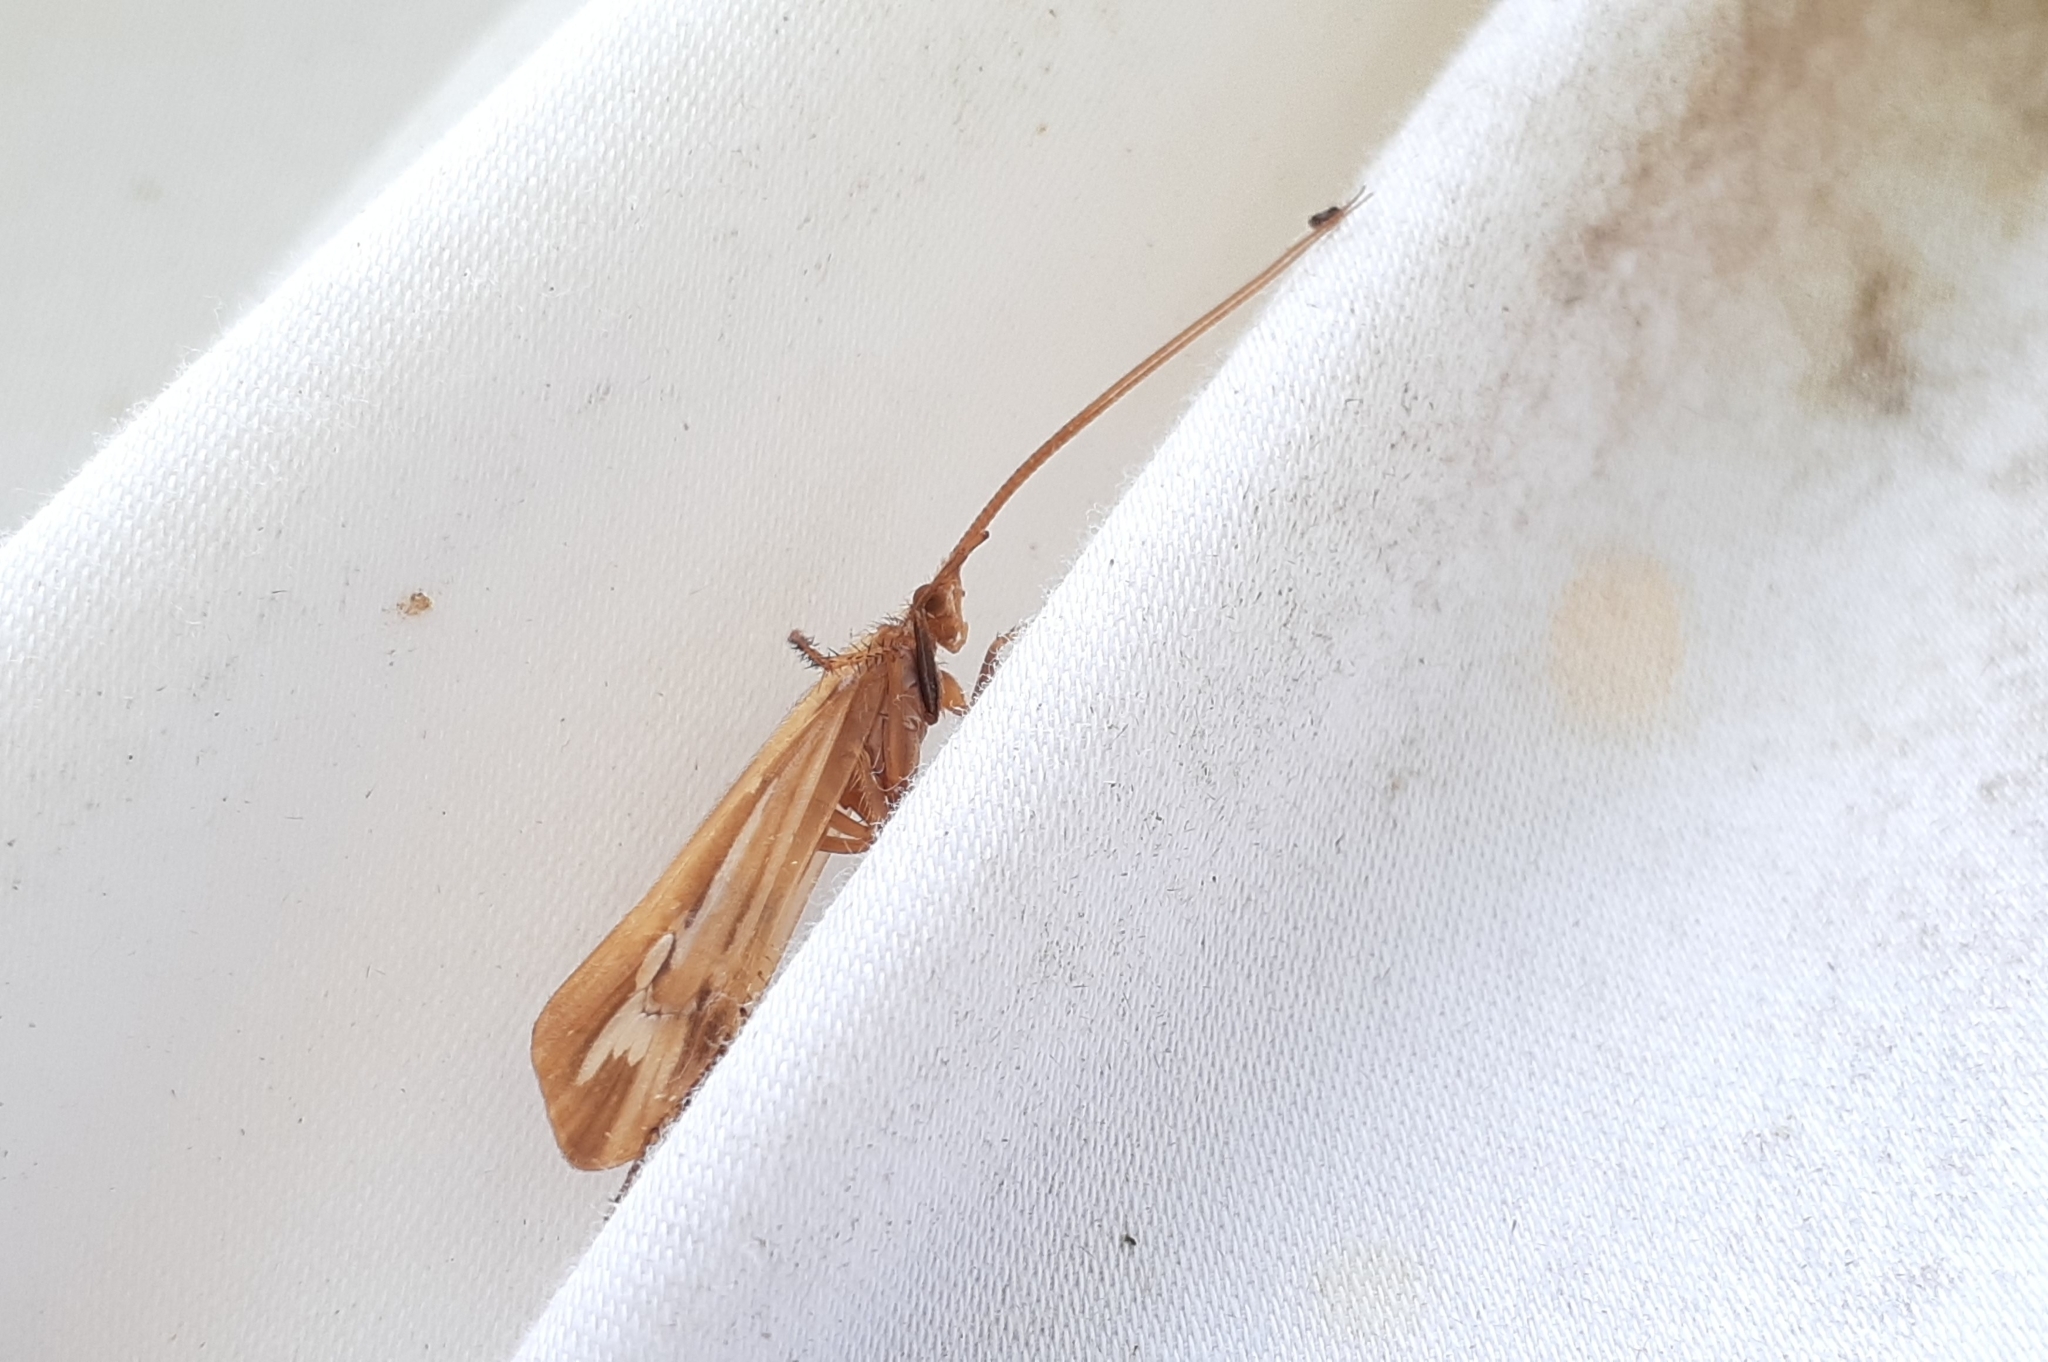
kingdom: Animalia
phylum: Arthropoda
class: Insecta
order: Trichoptera
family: Limnephilidae
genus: Limnephilus
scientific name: Limnephilus ornatus
